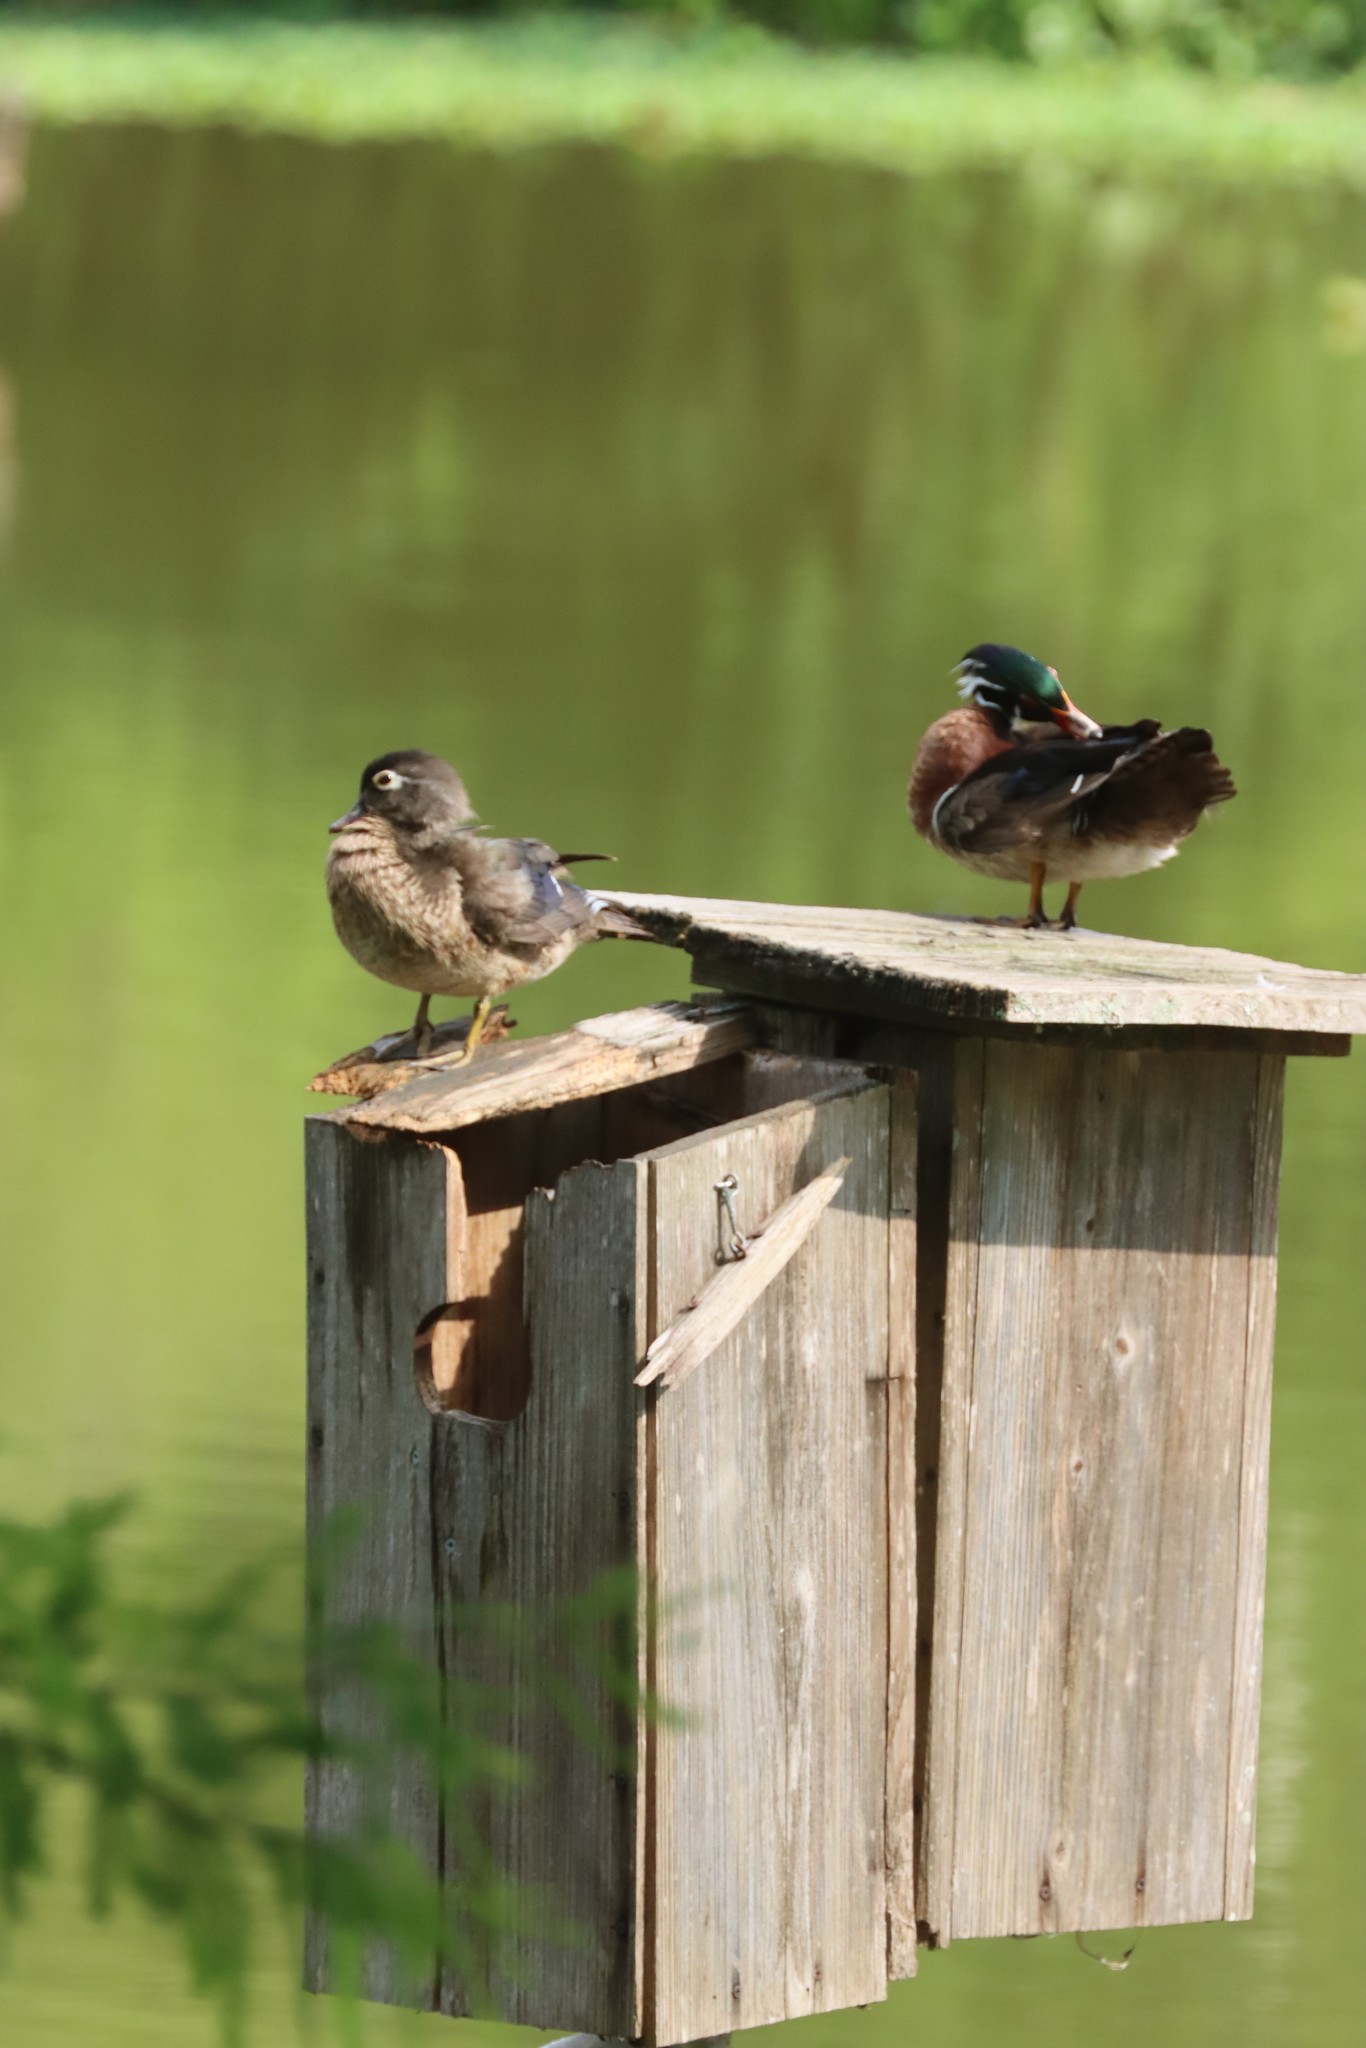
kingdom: Animalia
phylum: Chordata
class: Aves
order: Anseriformes
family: Anatidae
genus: Aix
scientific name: Aix sponsa
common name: Wood duck
